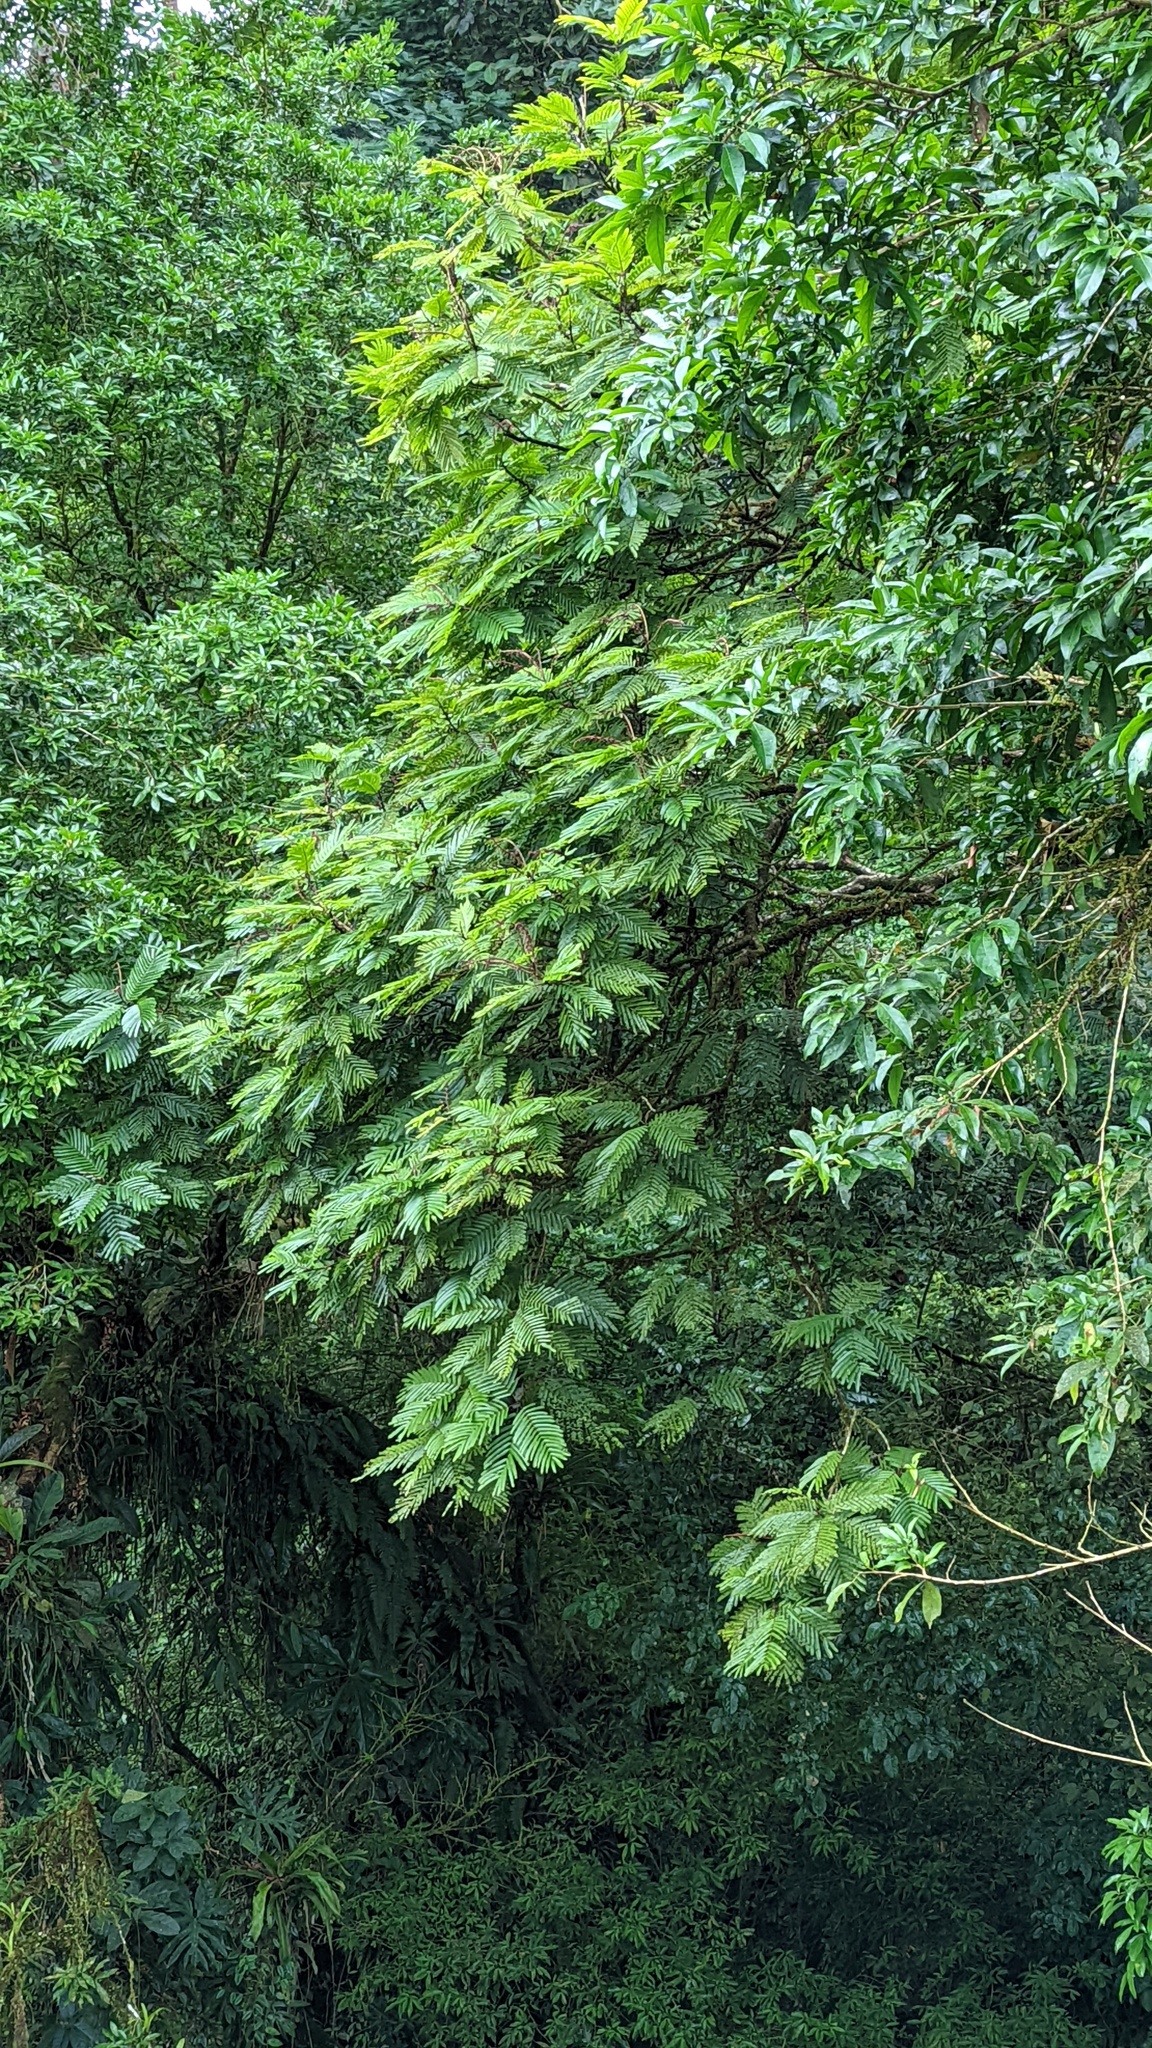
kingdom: Plantae
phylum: Tracheophyta
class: Magnoliopsida
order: Fabales
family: Fabaceae
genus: Pentaclethra
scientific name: Pentaclethra macroloba
